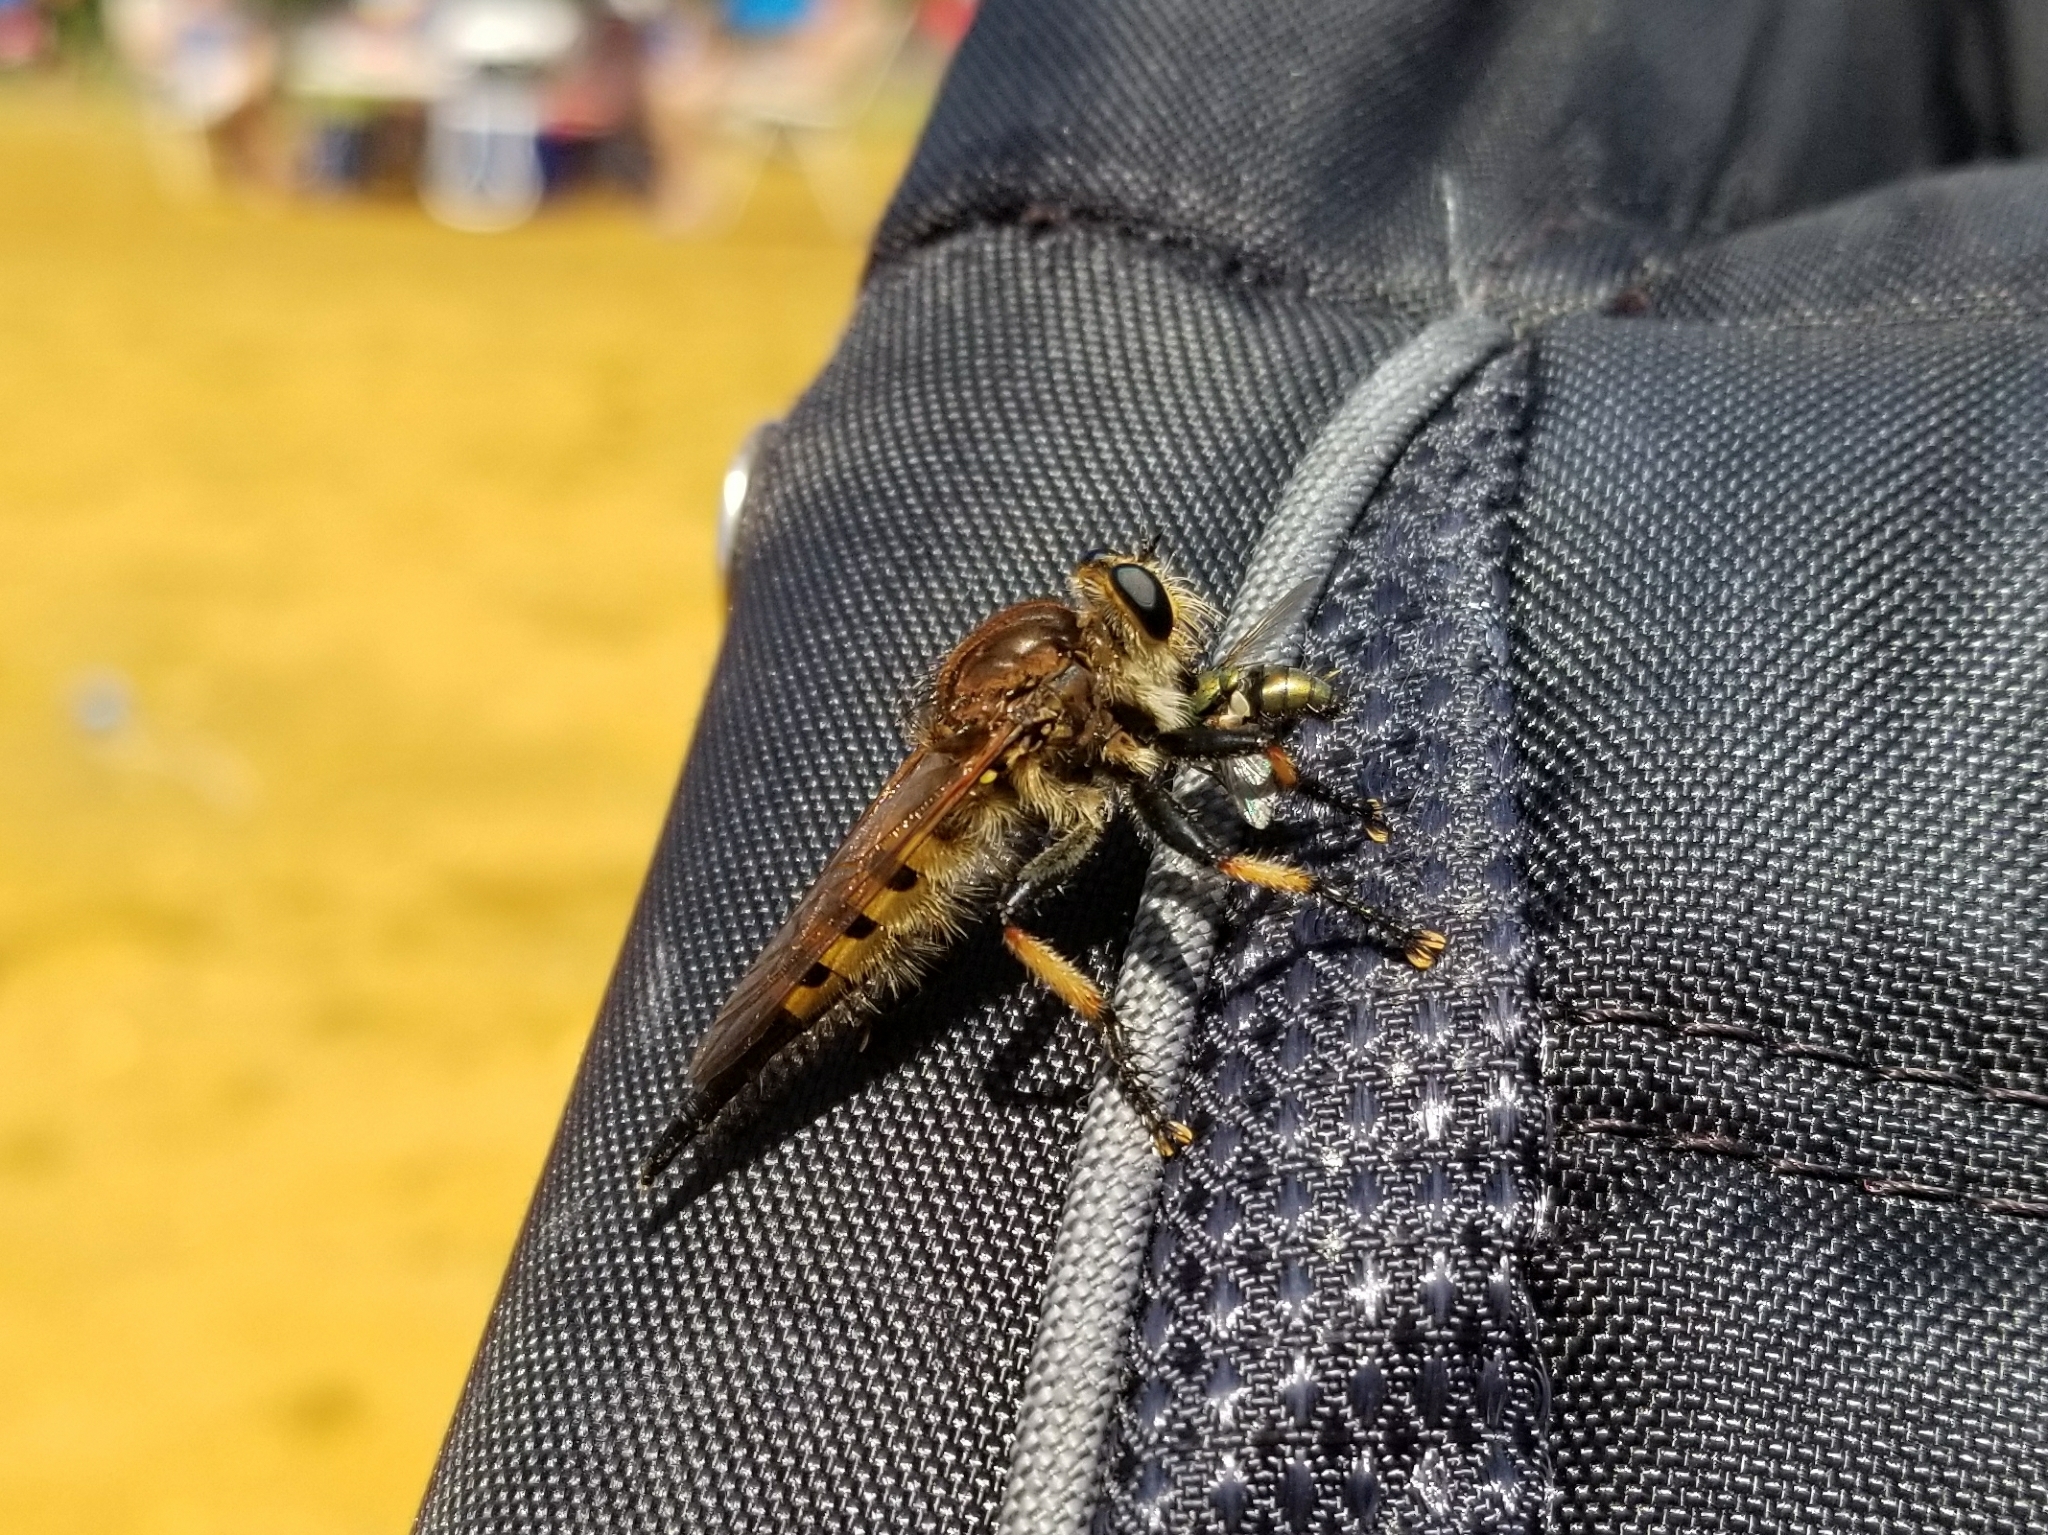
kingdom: Animalia
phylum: Arthropoda
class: Insecta
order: Diptera
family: Asilidae
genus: Promachus
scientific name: Promachus rufipes
